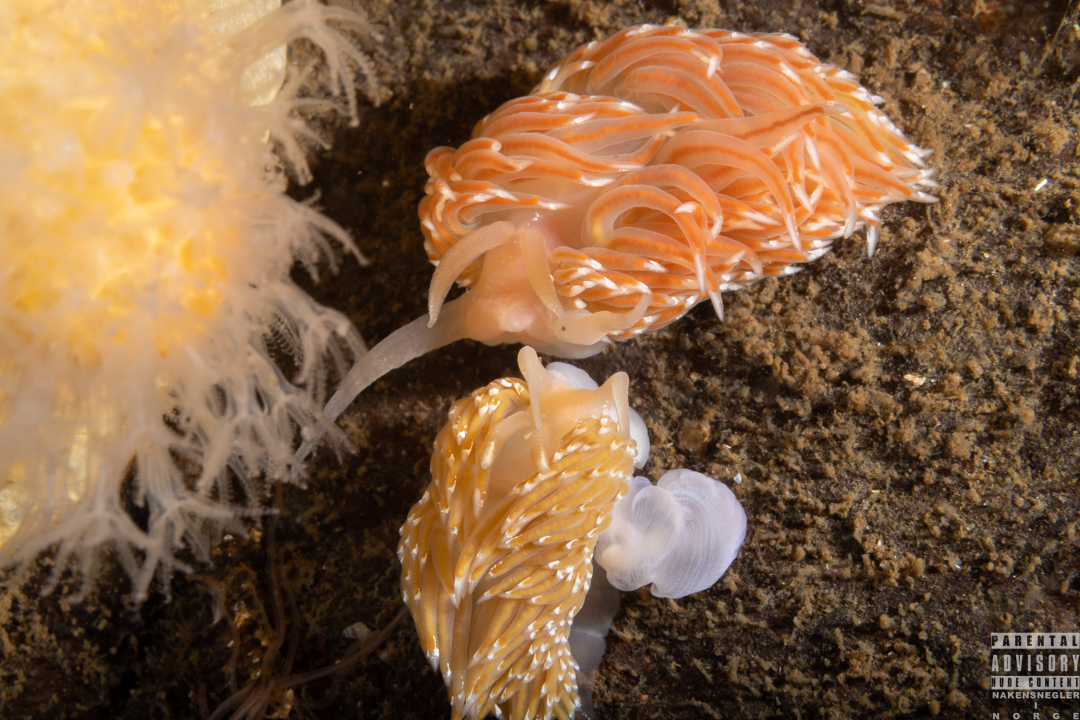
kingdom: Animalia
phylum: Mollusca
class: Gastropoda
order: Nudibranchia
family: Facelinidae
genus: Facelina
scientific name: Facelina bostoniensis
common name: Boston facelina
